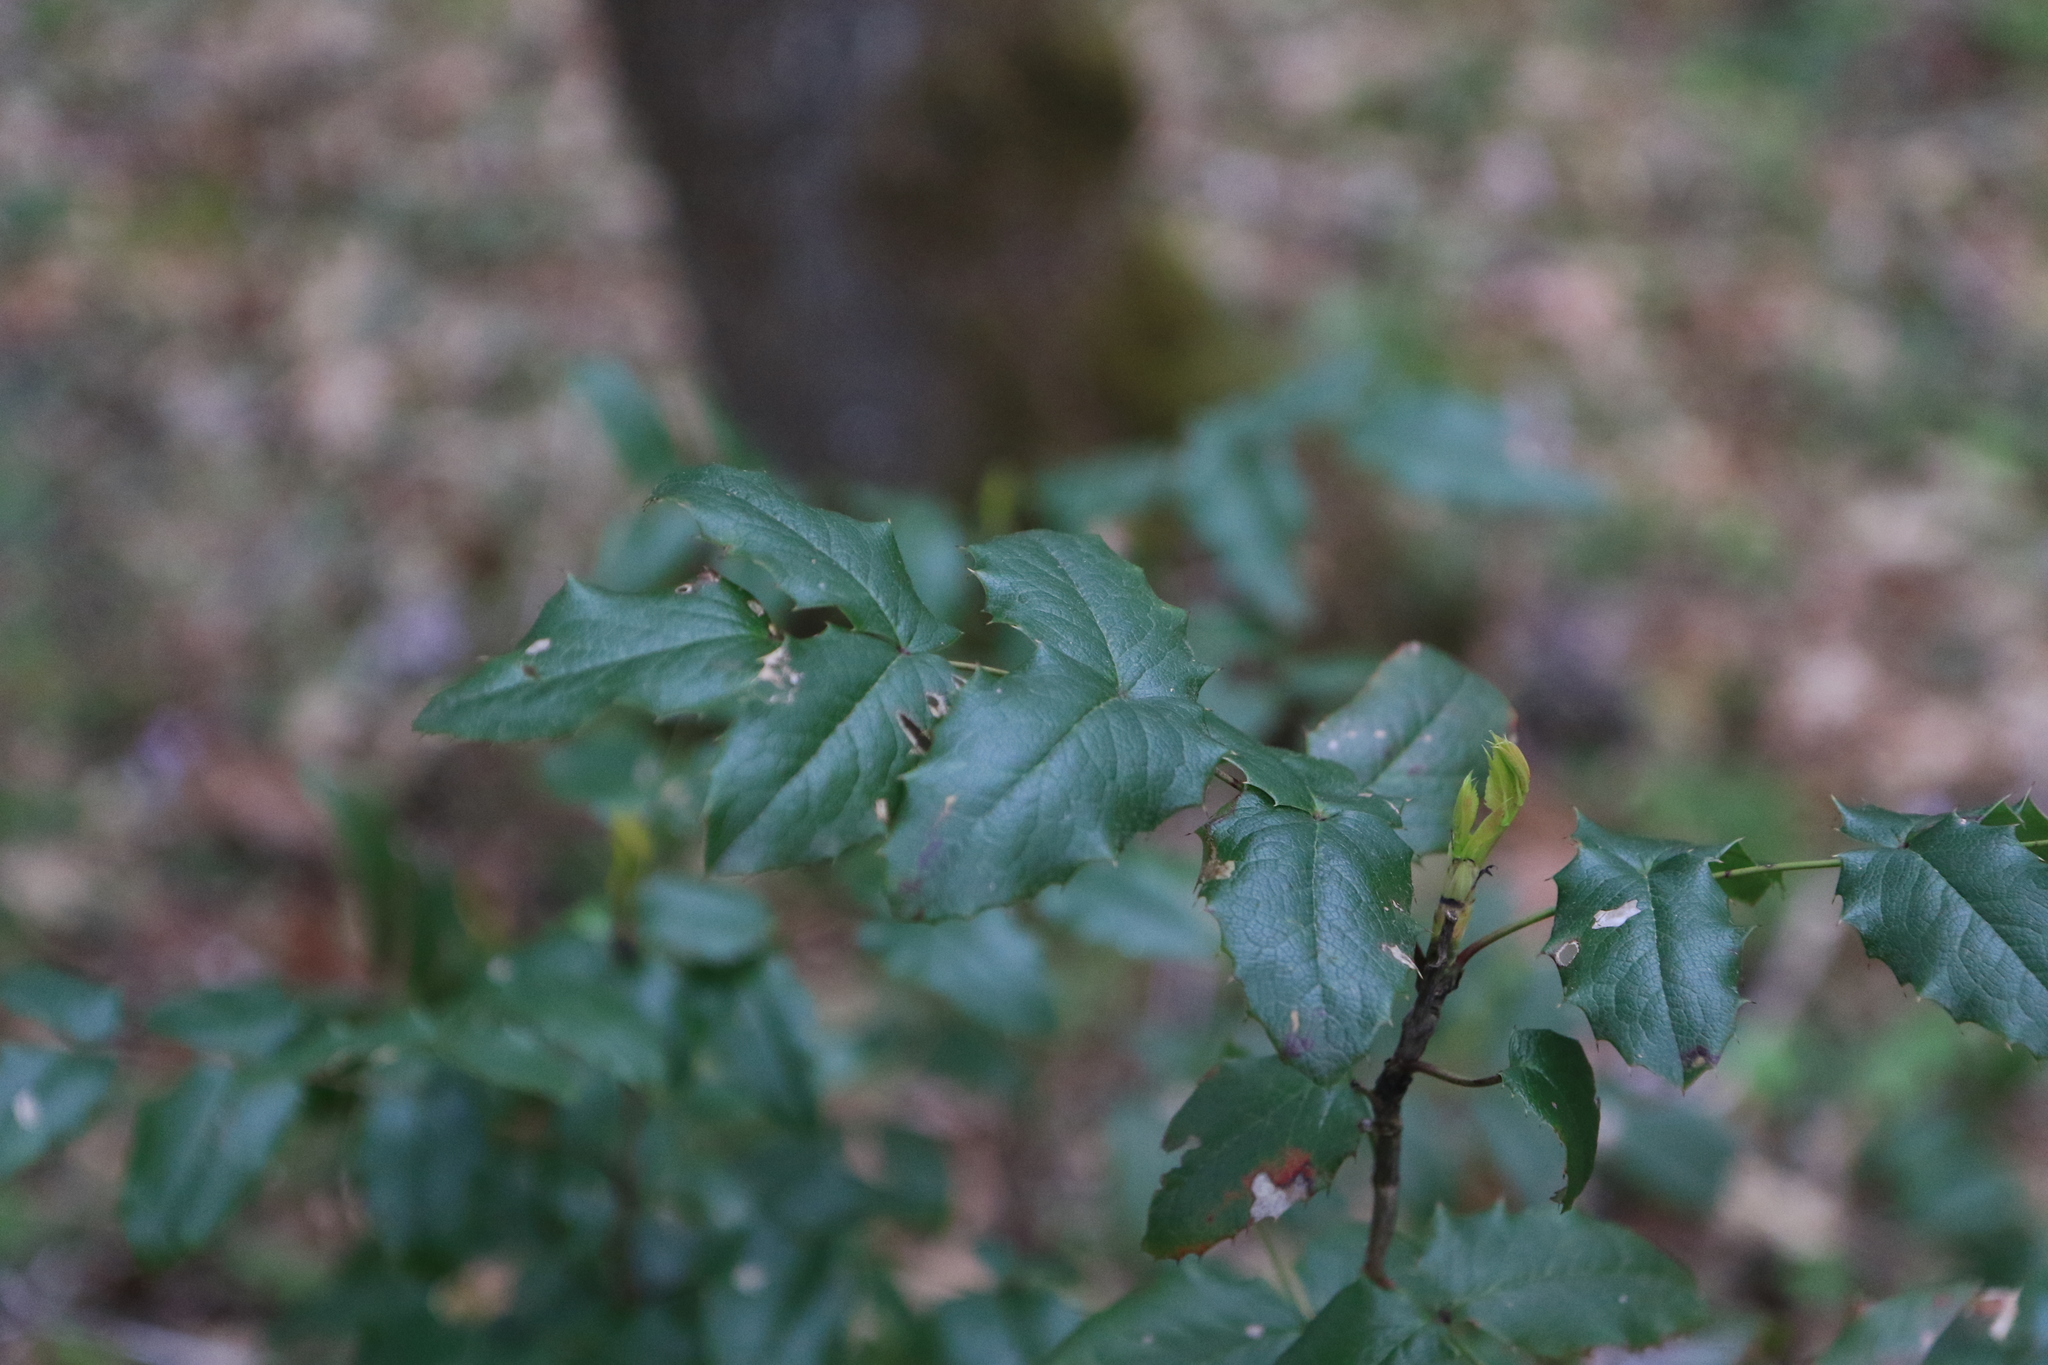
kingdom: Plantae
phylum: Tracheophyta
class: Magnoliopsida
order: Ranunculales
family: Berberidaceae
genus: Mahonia
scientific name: Mahonia aquifolium
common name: Oregon-grape
